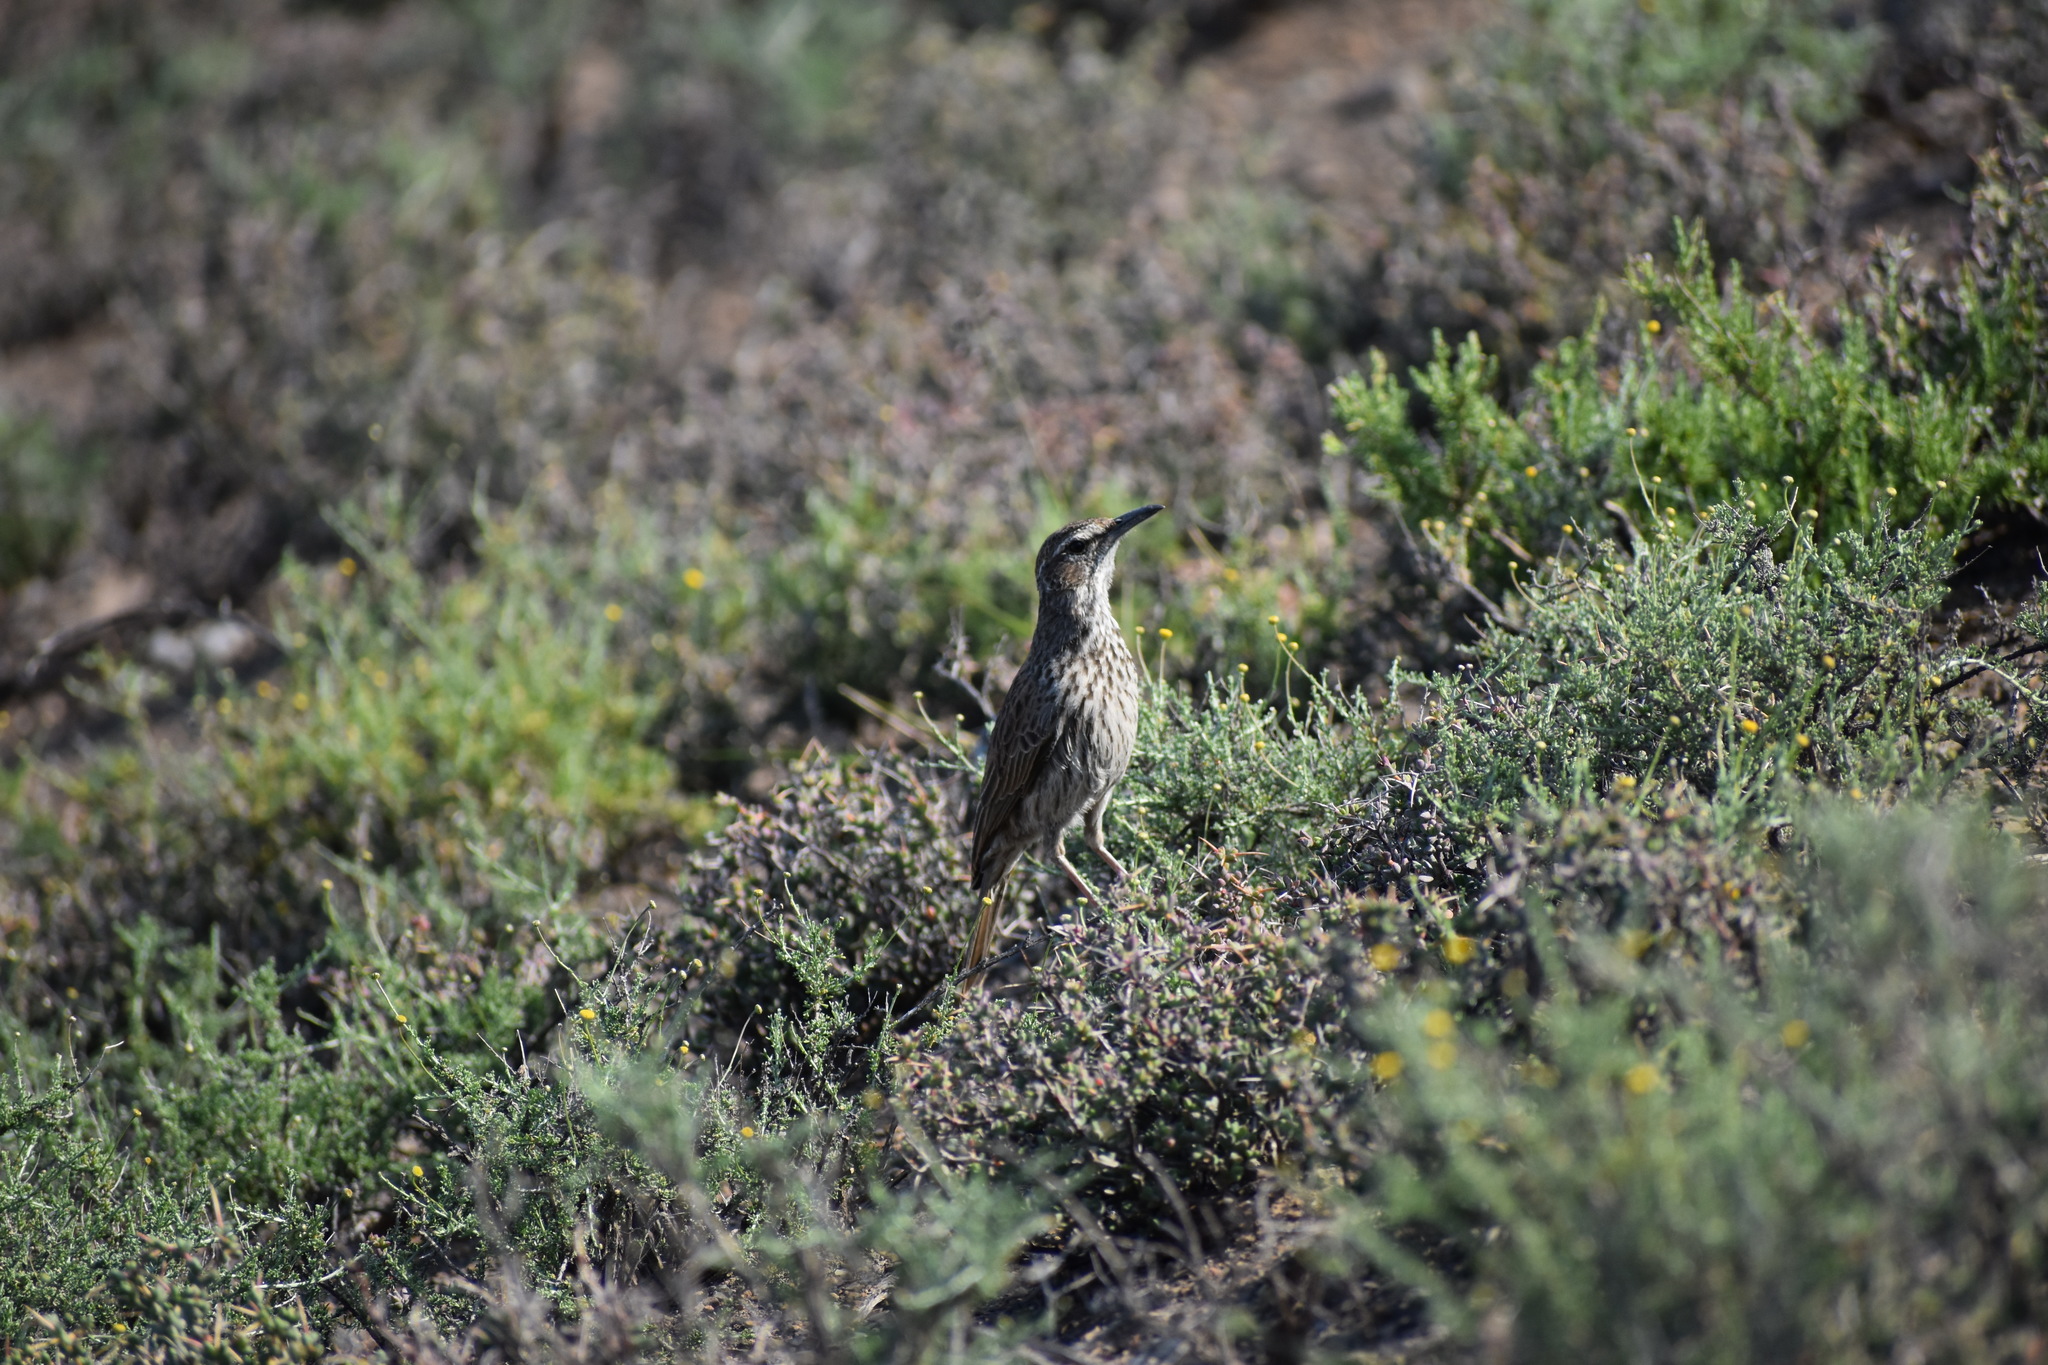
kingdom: Animalia
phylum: Chordata
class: Aves
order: Passeriformes
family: Alaudidae
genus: Certhilauda
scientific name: Certhilauda subcoronata
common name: Karoo long-billed lark
